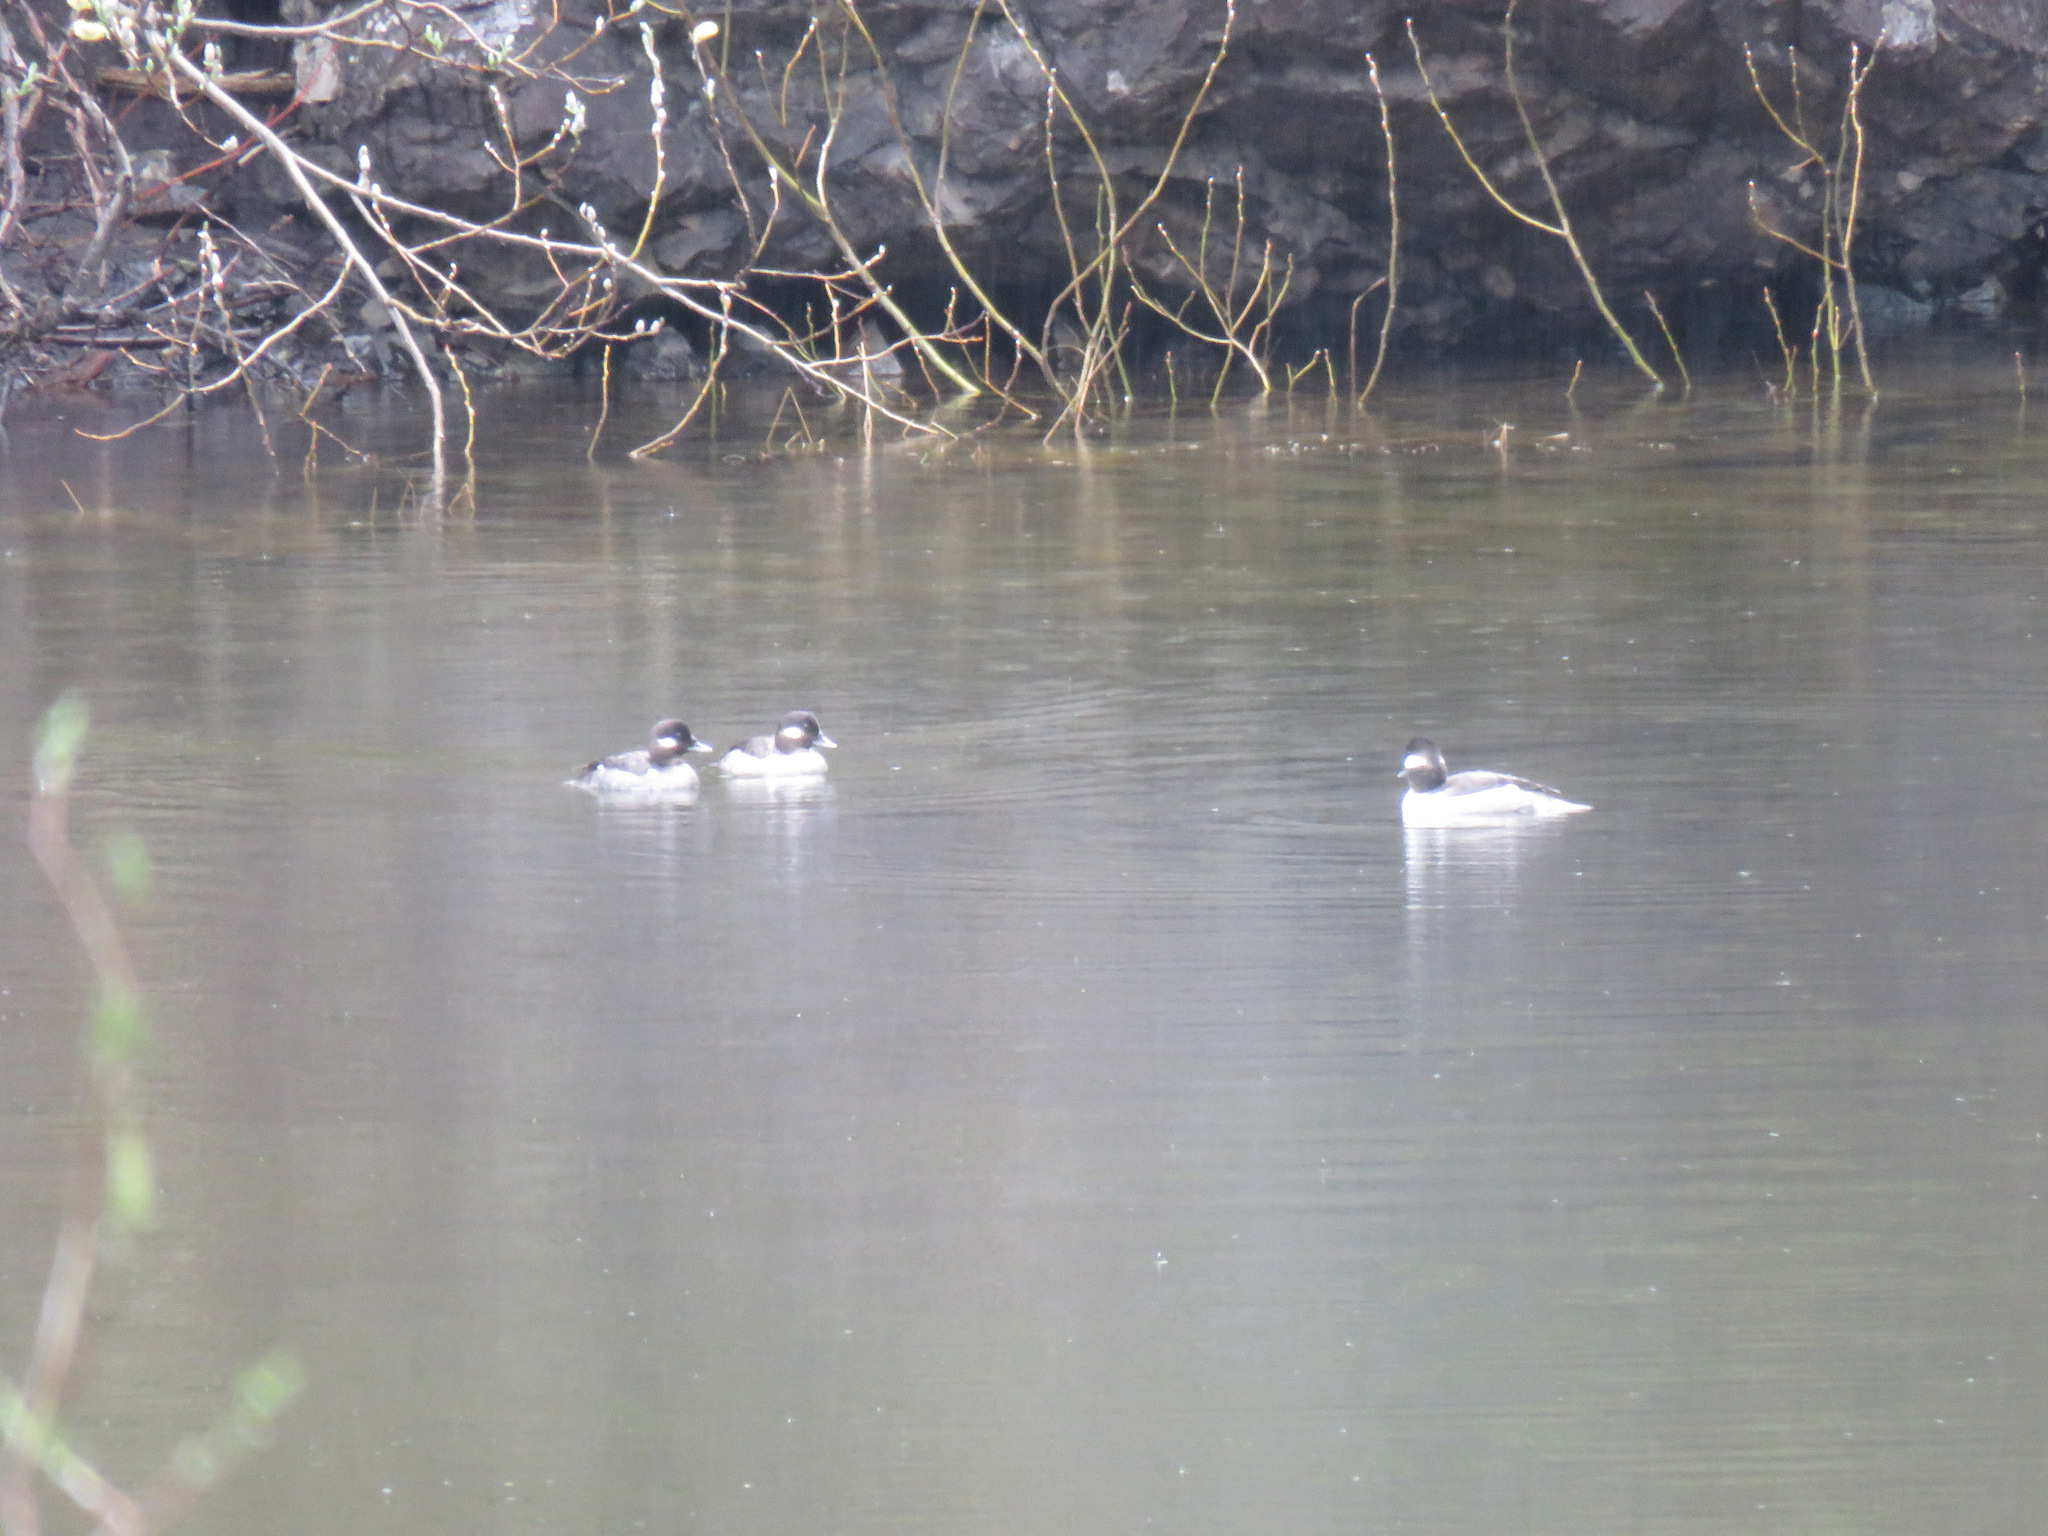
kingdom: Animalia
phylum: Chordata
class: Aves
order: Anseriformes
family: Anatidae
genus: Bucephala
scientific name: Bucephala albeola
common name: Bufflehead
